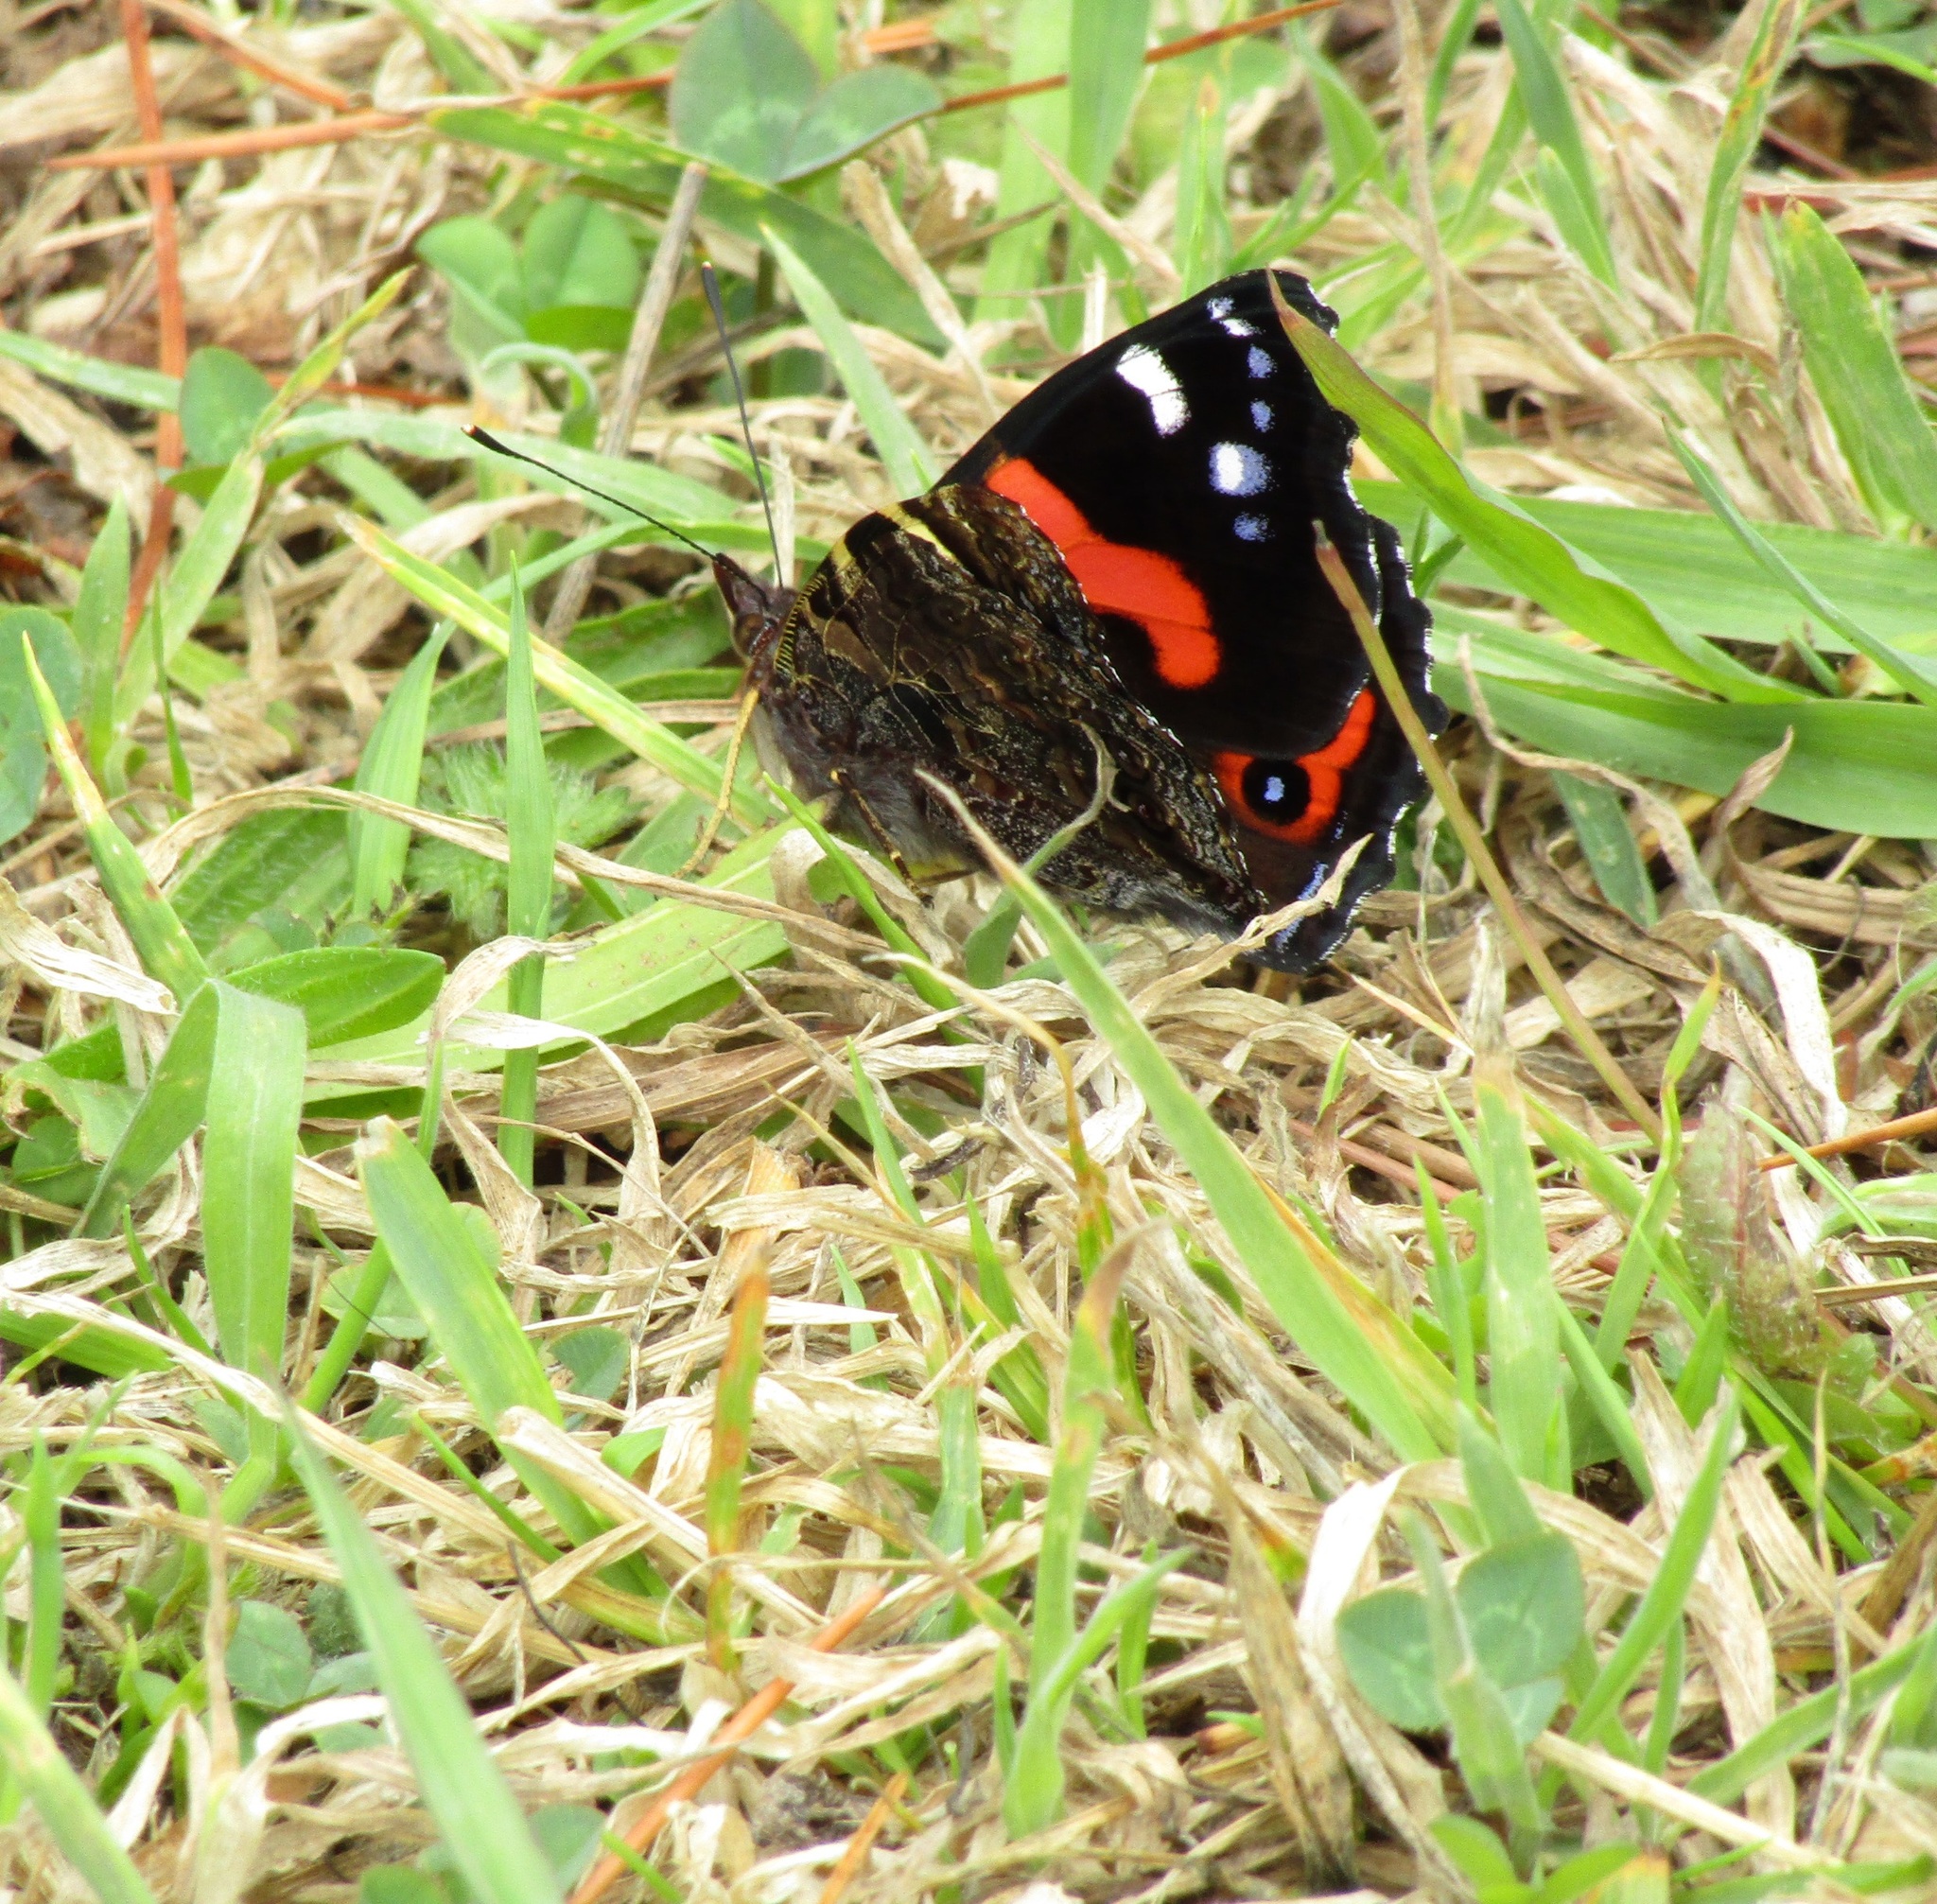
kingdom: Animalia
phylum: Arthropoda
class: Insecta
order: Lepidoptera
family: Nymphalidae
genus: Vanessa
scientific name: Vanessa gonerilla
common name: New zealand red admiral
